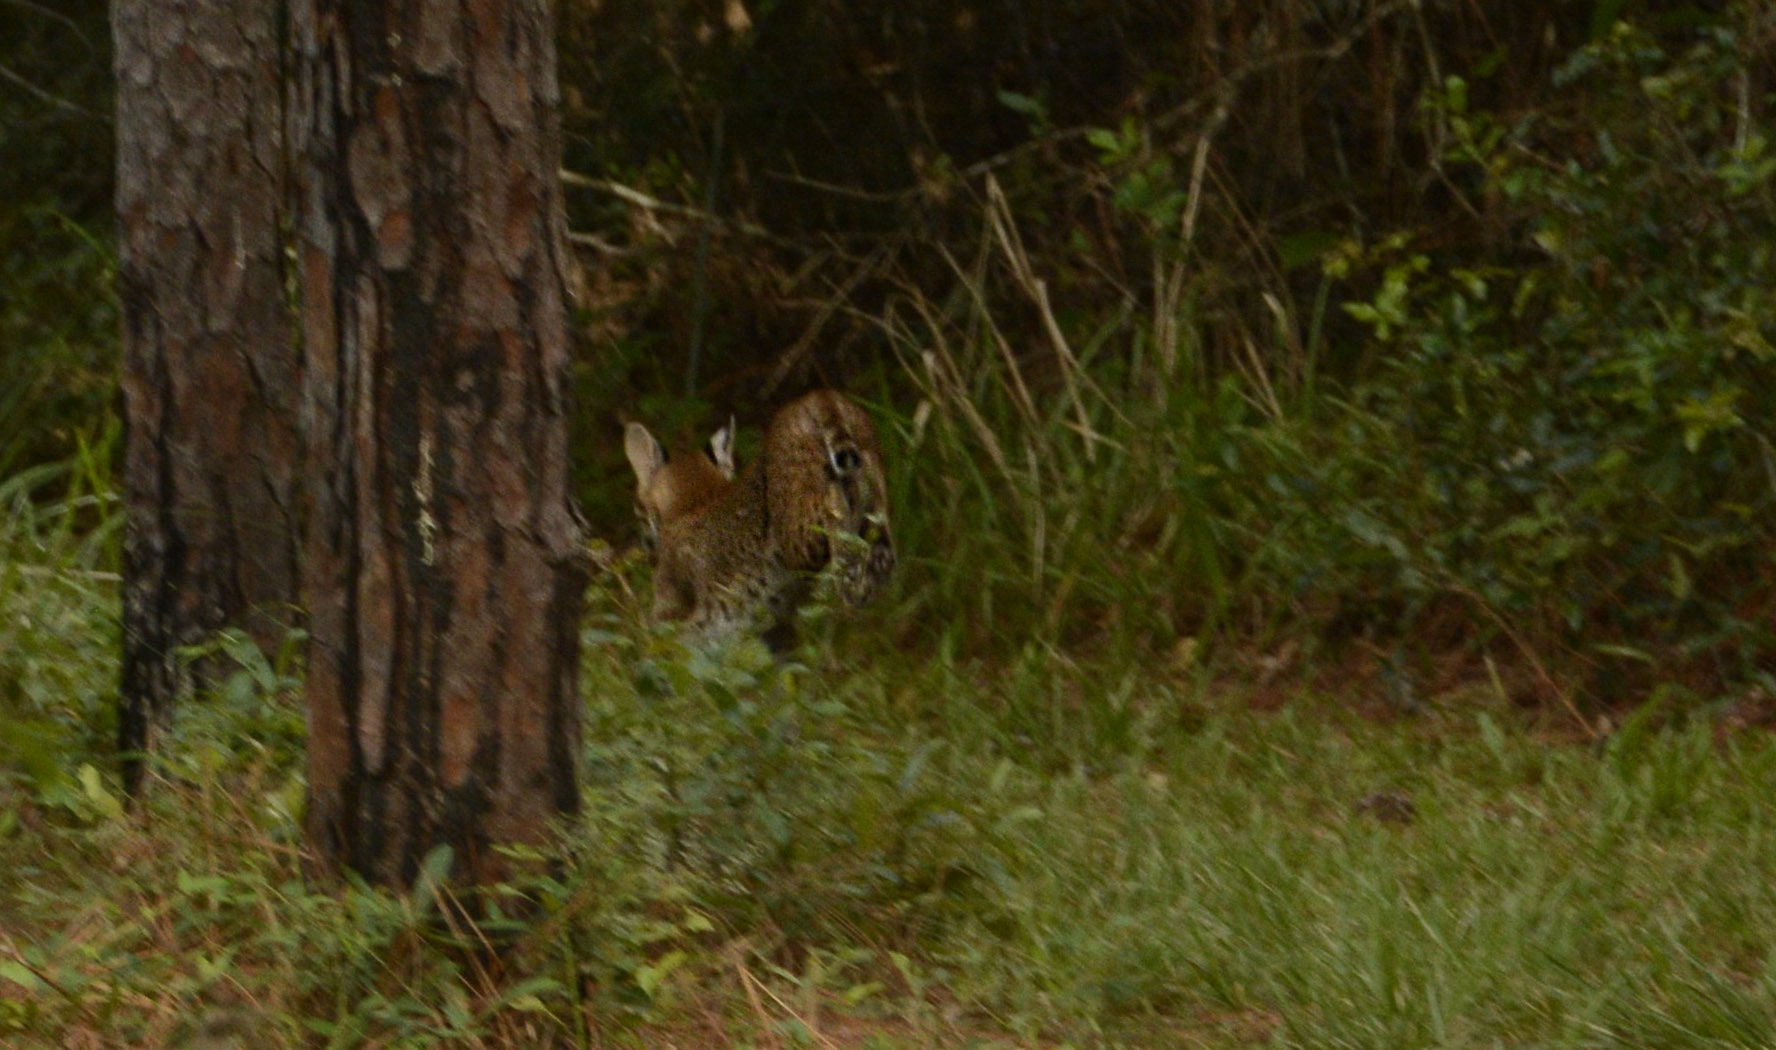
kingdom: Animalia
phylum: Chordata
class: Mammalia
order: Carnivora
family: Felidae
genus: Lynx
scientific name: Lynx rufus
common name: Bobcat
